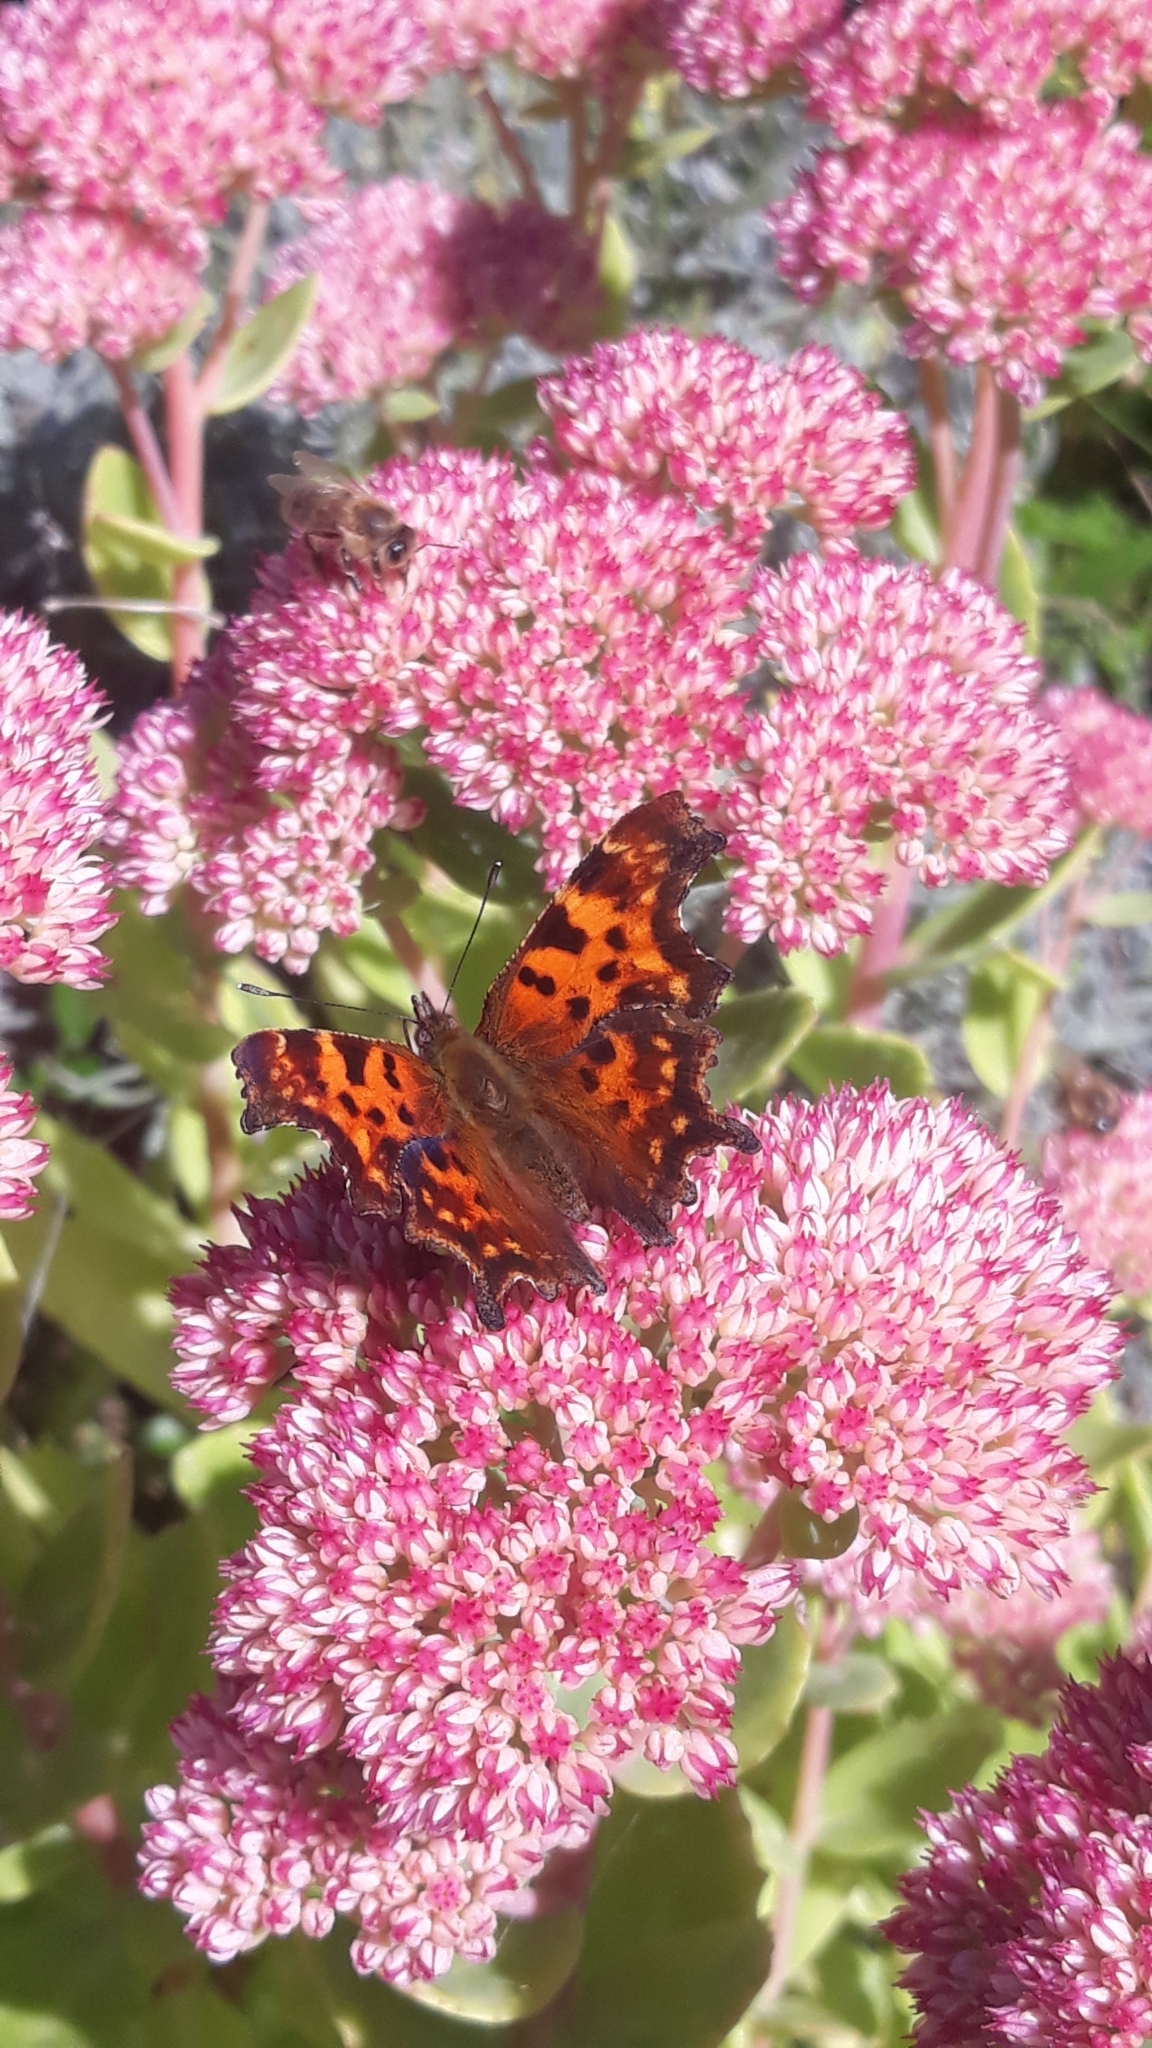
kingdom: Animalia
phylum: Arthropoda
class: Insecta
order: Lepidoptera
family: Nymphalidae
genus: Polygonia
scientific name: Polygonia c-album
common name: Comma
